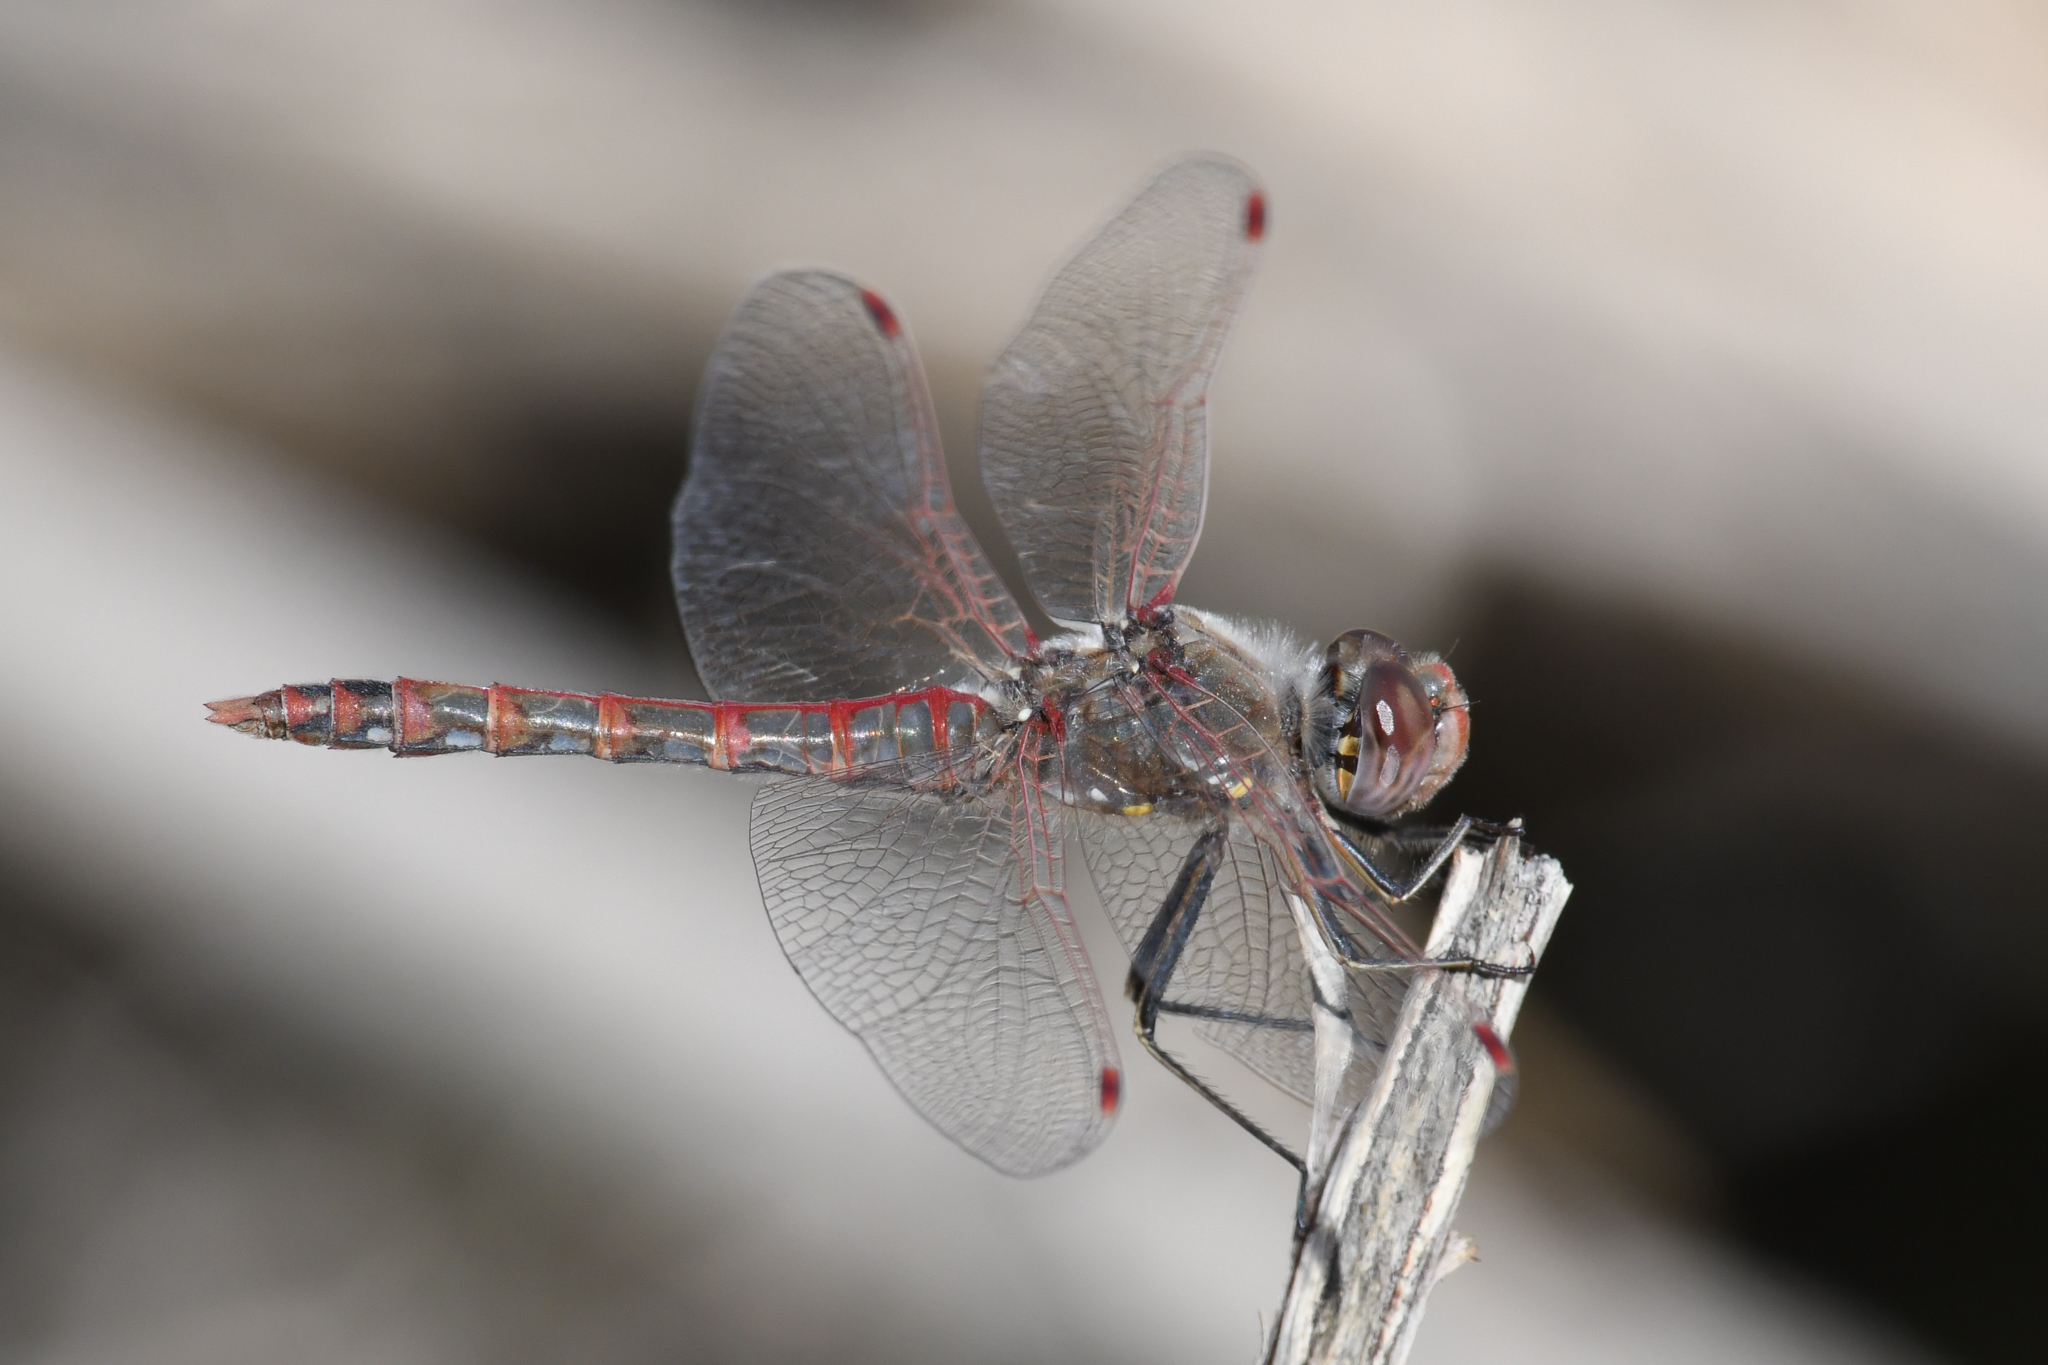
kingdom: Animalia
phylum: Arthropoda
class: Insecta
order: Odonata
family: Libellulidae
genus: Sympetrum
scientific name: Sympetrum corruptum
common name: Variegated meadowhawk
